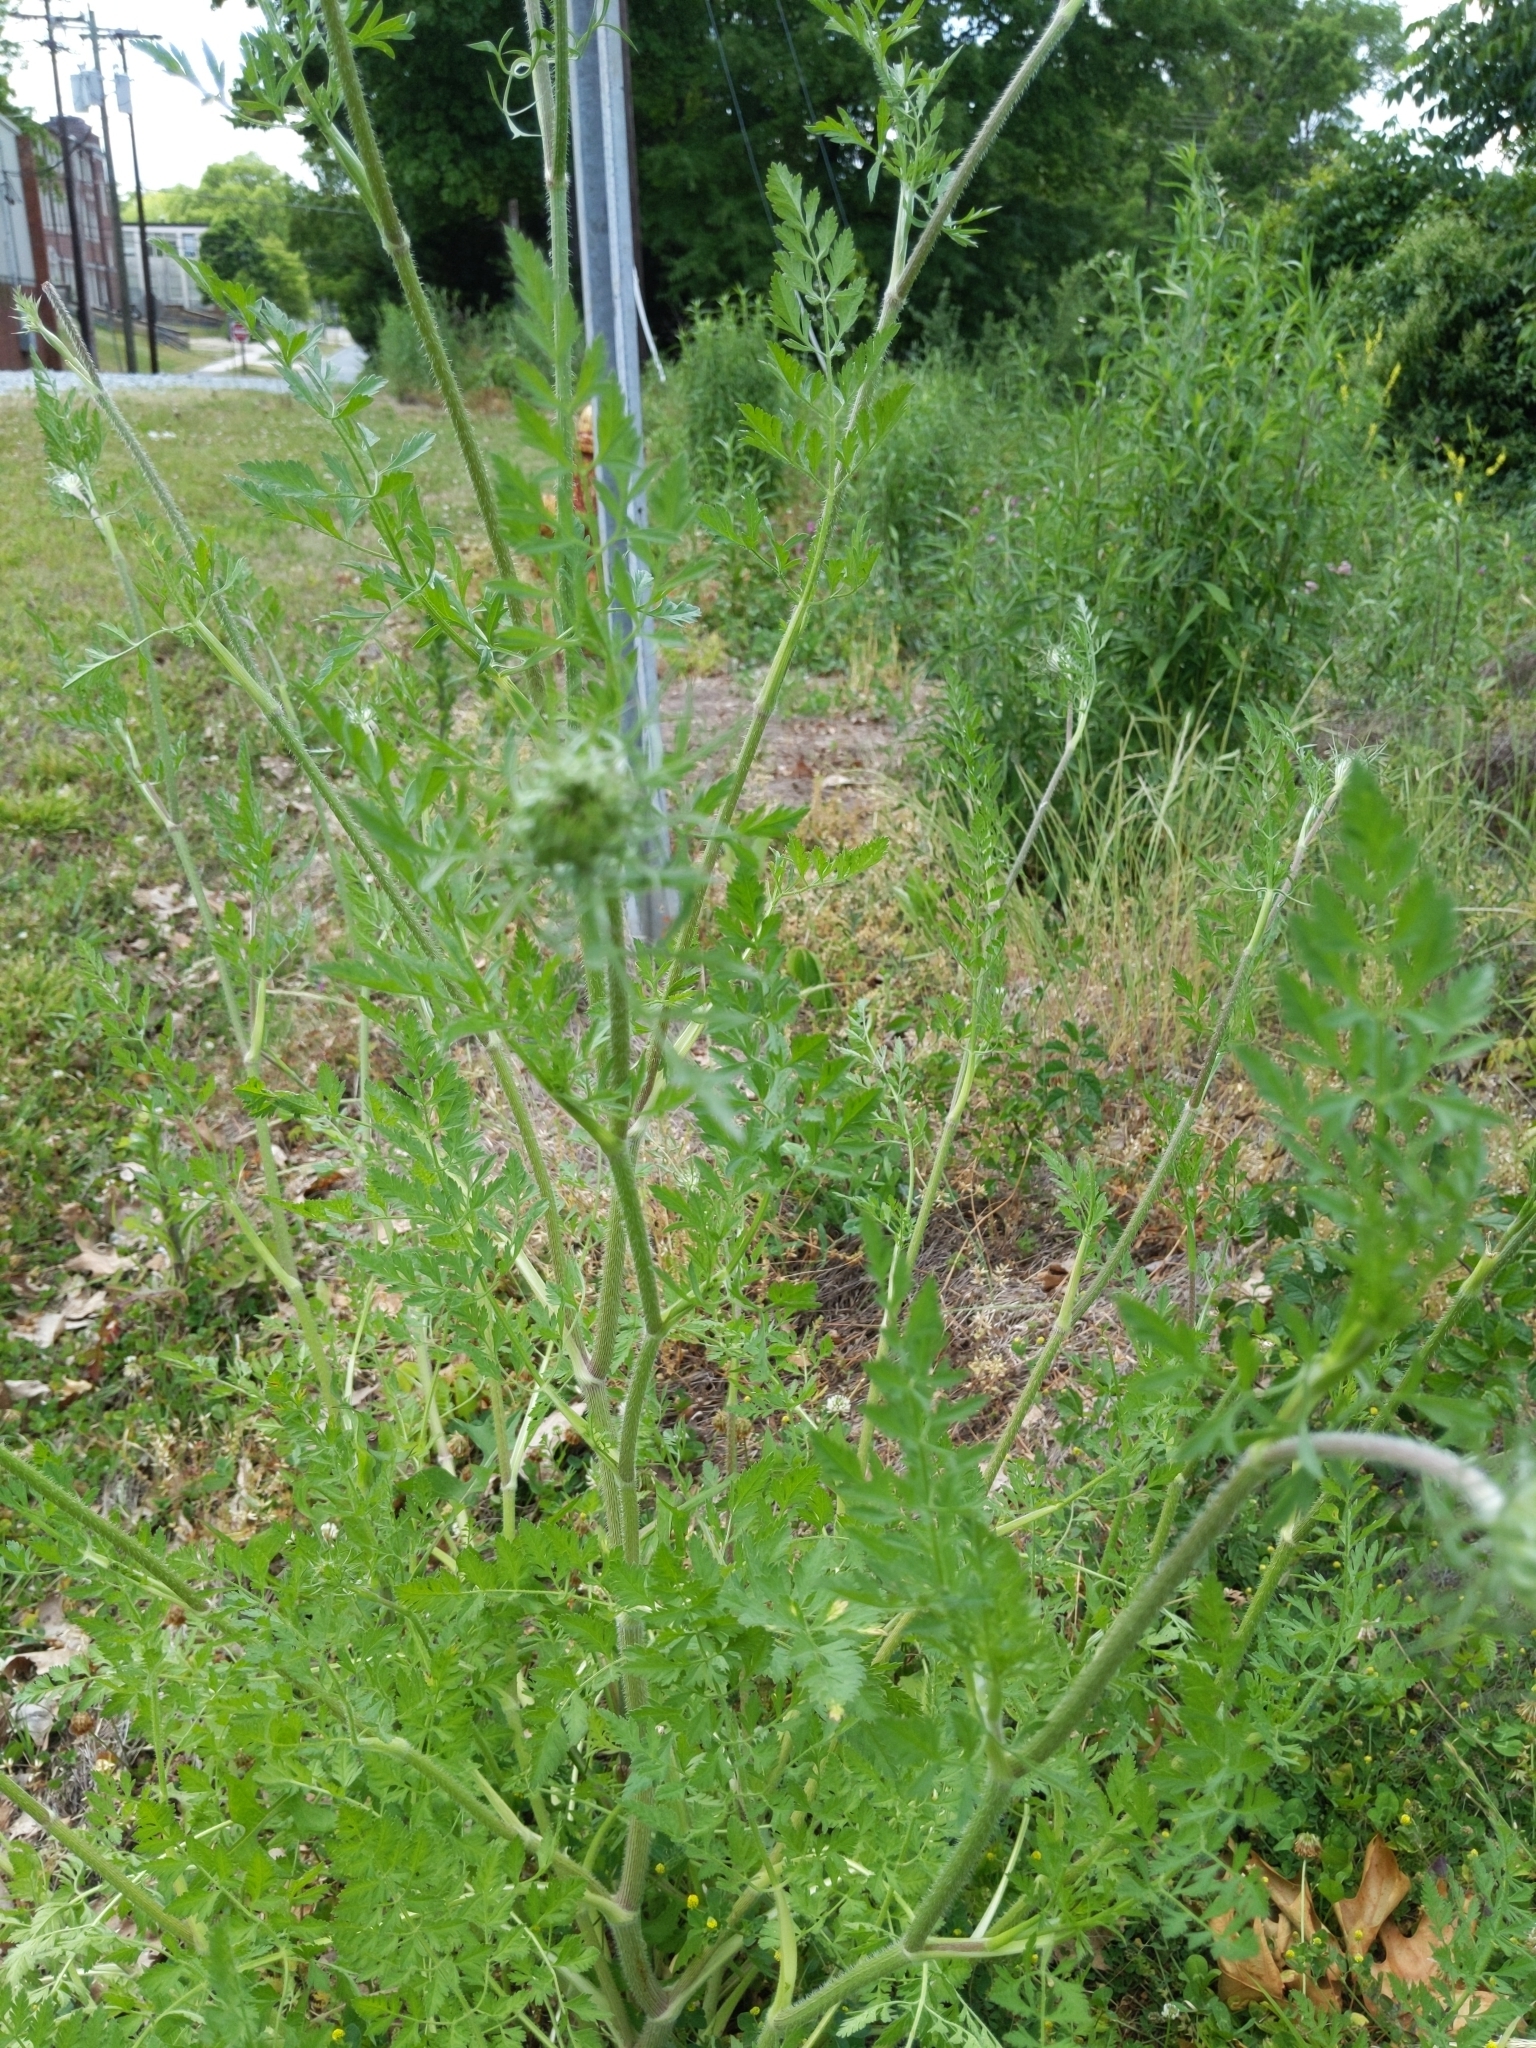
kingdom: Plantae
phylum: Tracheophyta
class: Magnoliopsida
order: Apiales
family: Apiaceae
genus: Daucus
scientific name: Daucus carota
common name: Wild carrot
